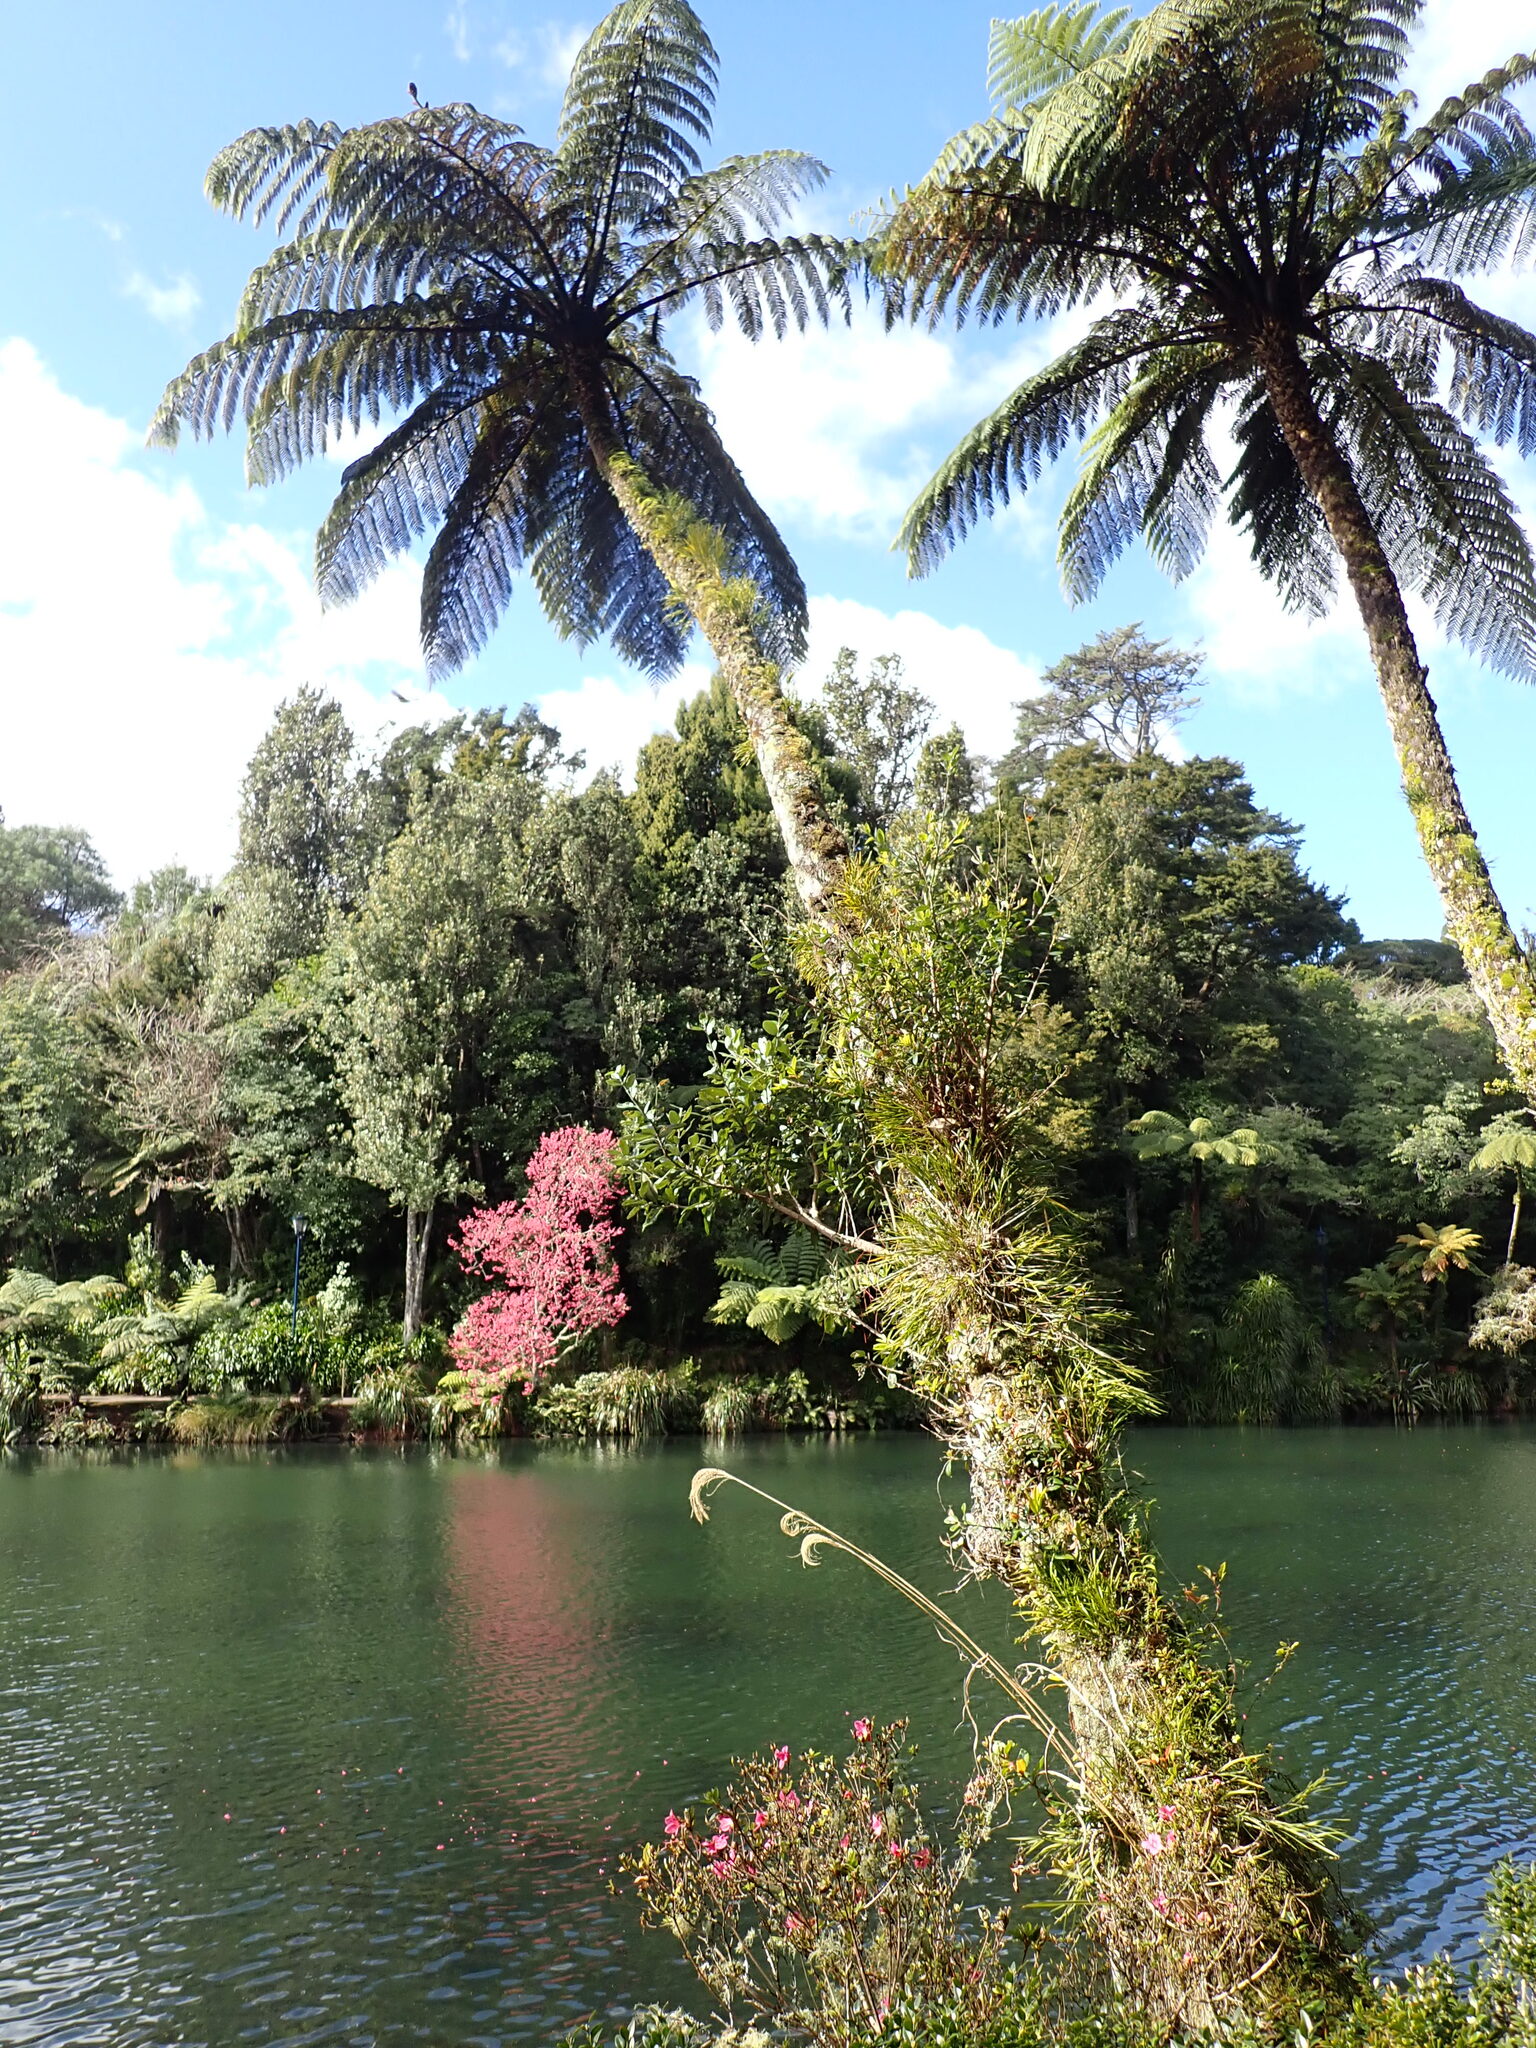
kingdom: Plantae
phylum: Tracheophyta
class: Magnoliopsida
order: Myrtales
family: Myrtaceae
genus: Metrosideros
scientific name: Metrosideros excelsa
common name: New zealand christmastree
